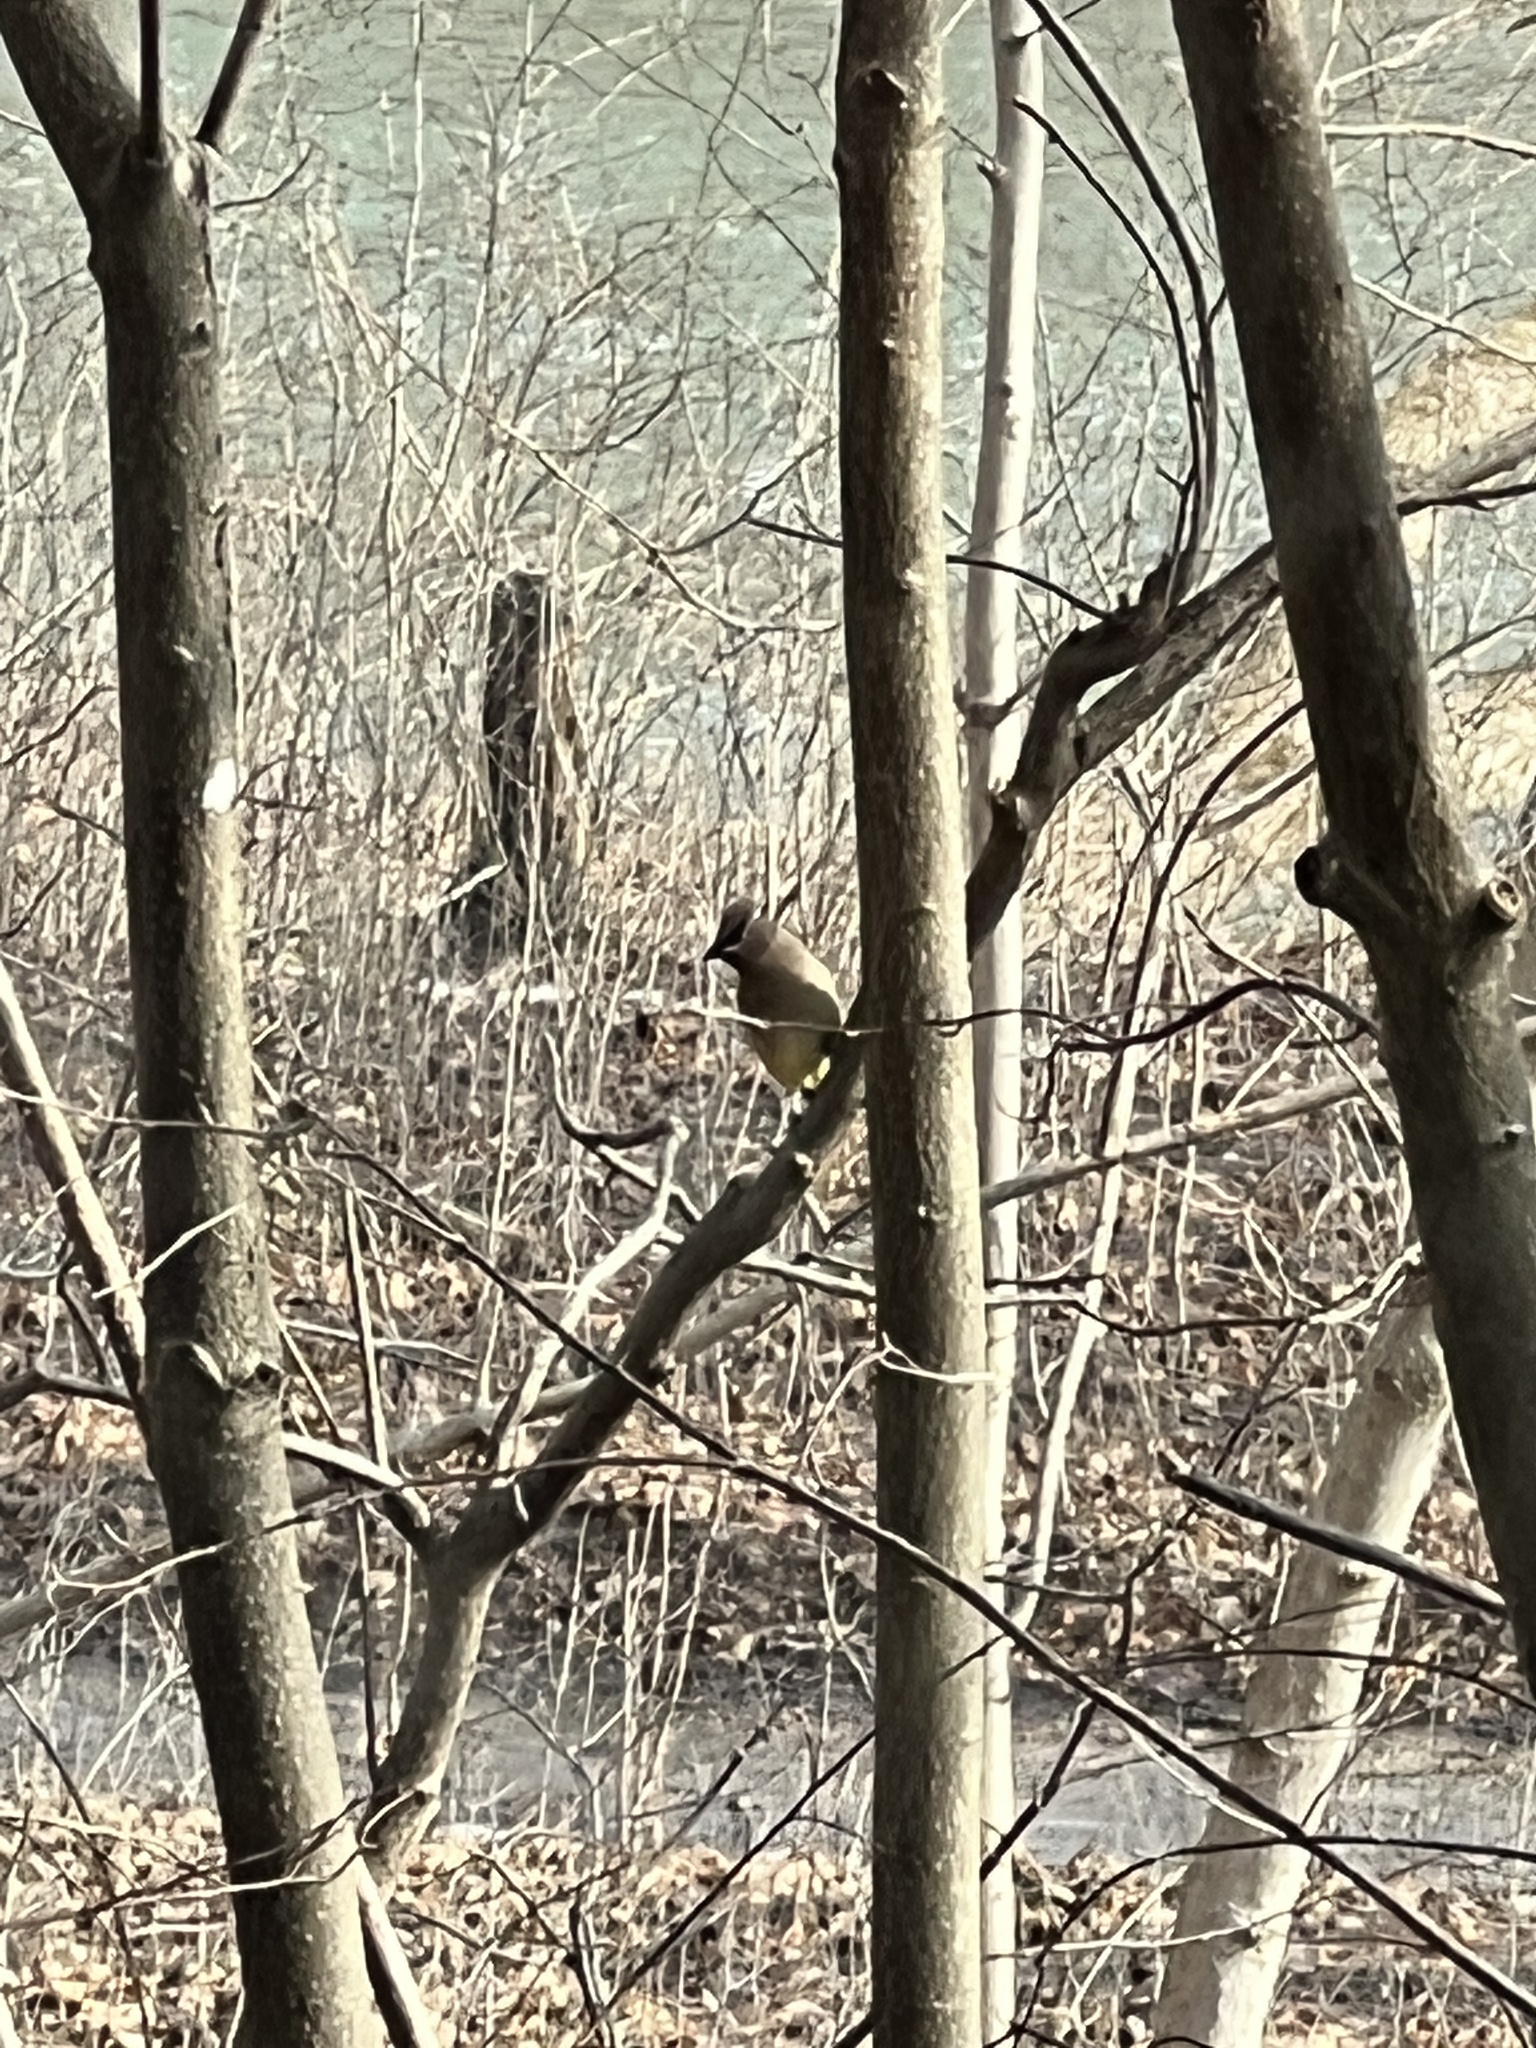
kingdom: Animalia
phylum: Chordata
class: Aves
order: Passeriformes
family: Bombycillidae
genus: Bombycilla
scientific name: Bombycilla cedrorum
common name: Cedar waxwing
